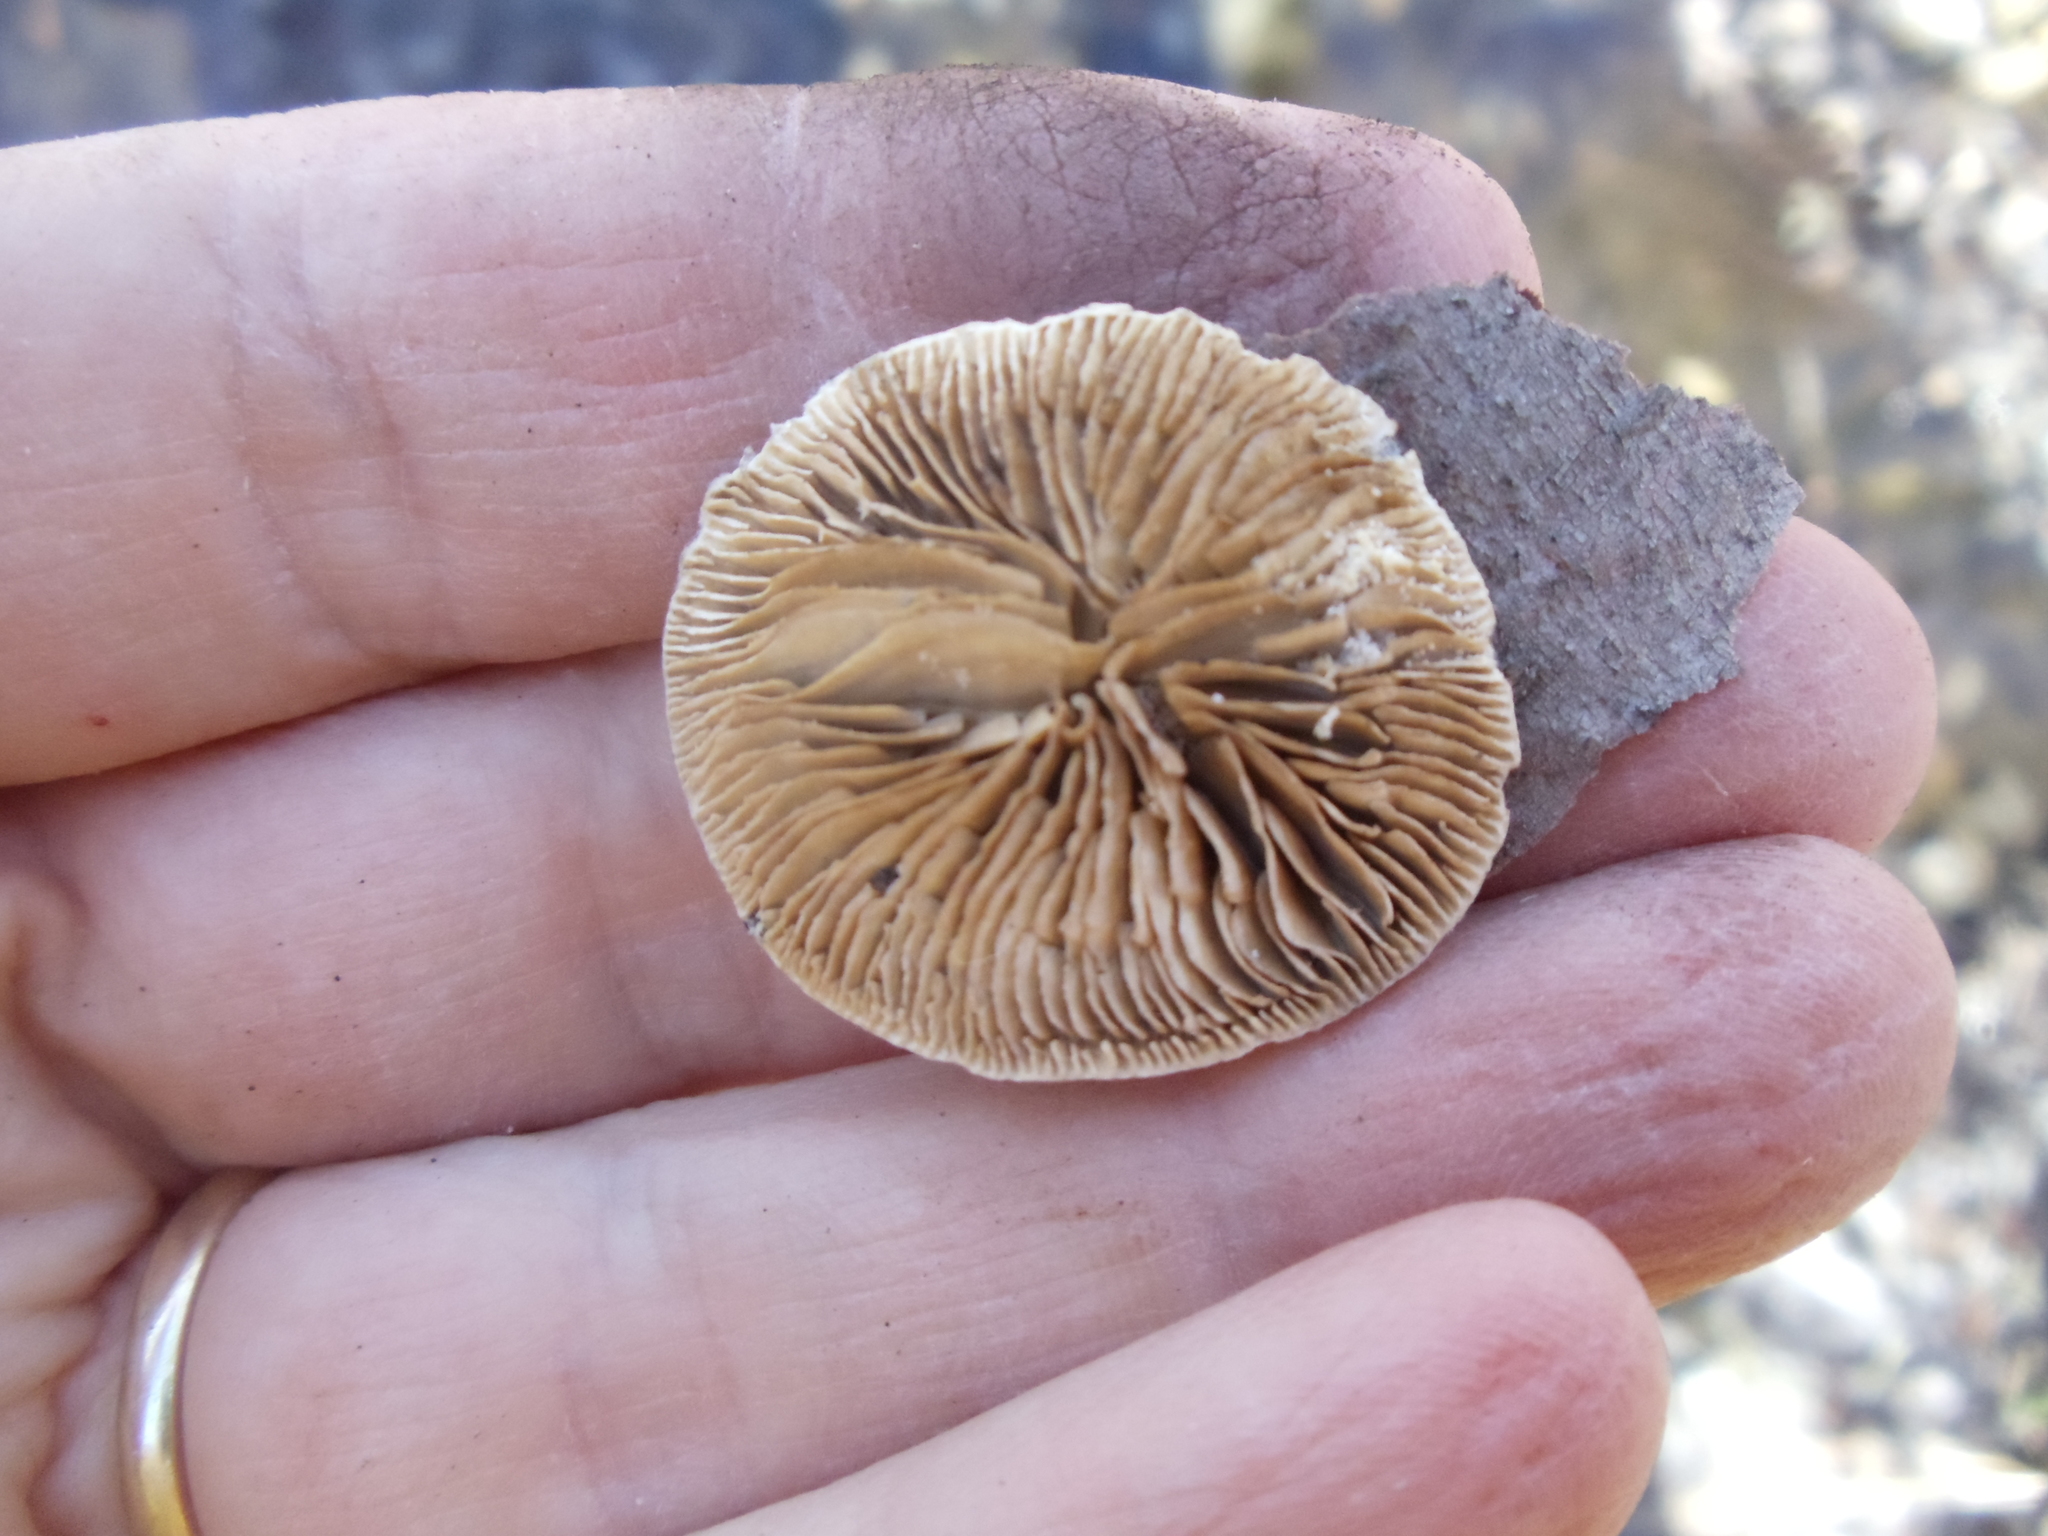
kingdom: Fungi
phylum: Basidiomycota
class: Agaricomycetes
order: Polyporales
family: Polyporaceae
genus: Lenzites
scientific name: Lenzites betulinus
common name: Birch mazegill
